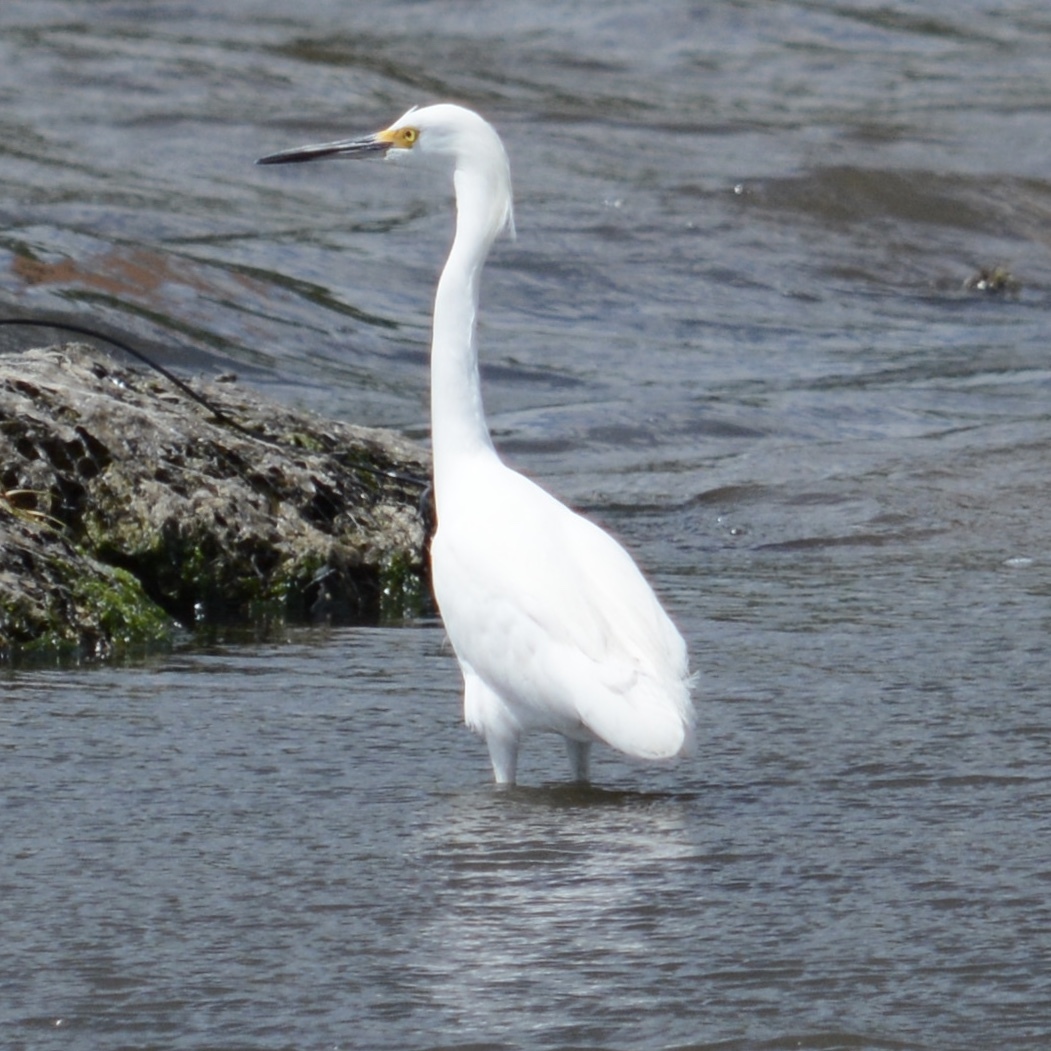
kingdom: Animalia
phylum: Chordata
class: Aves
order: Pelecaniformes
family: Ardeidae
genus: Egretta
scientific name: Egretta thula
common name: Snowy egret
